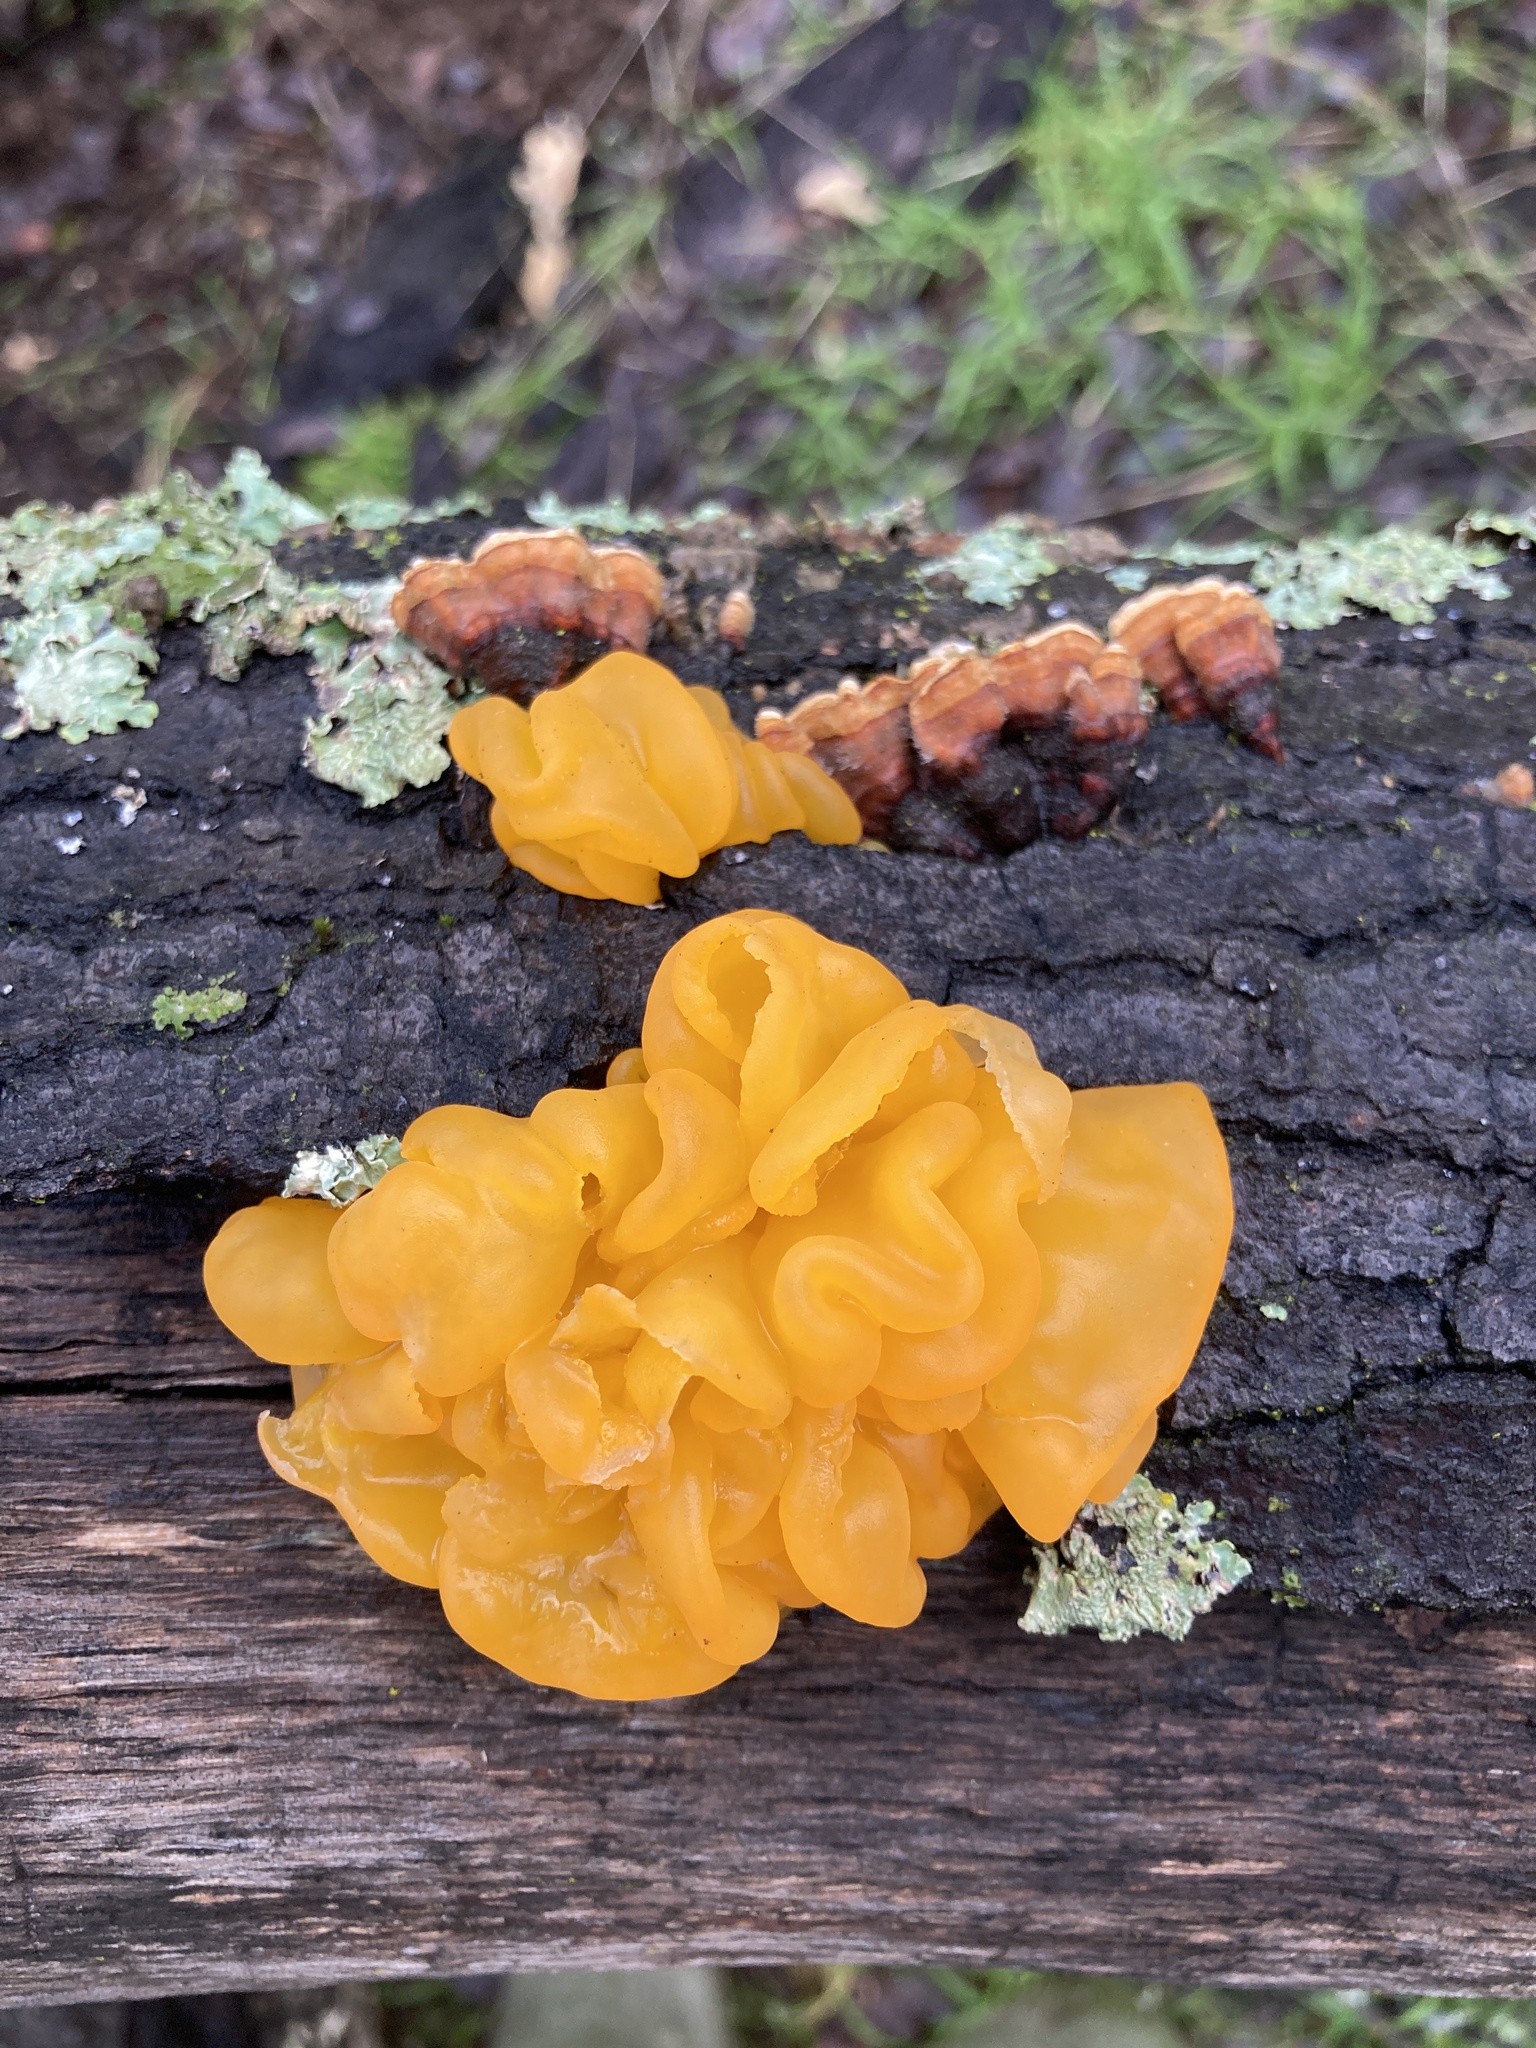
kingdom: Fungi
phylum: Basidiomycota
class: Tremellomycetes
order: Tremellales
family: Naemateliaceae
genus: Naematelia
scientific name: Naematelia aurantia
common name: Golden ear
